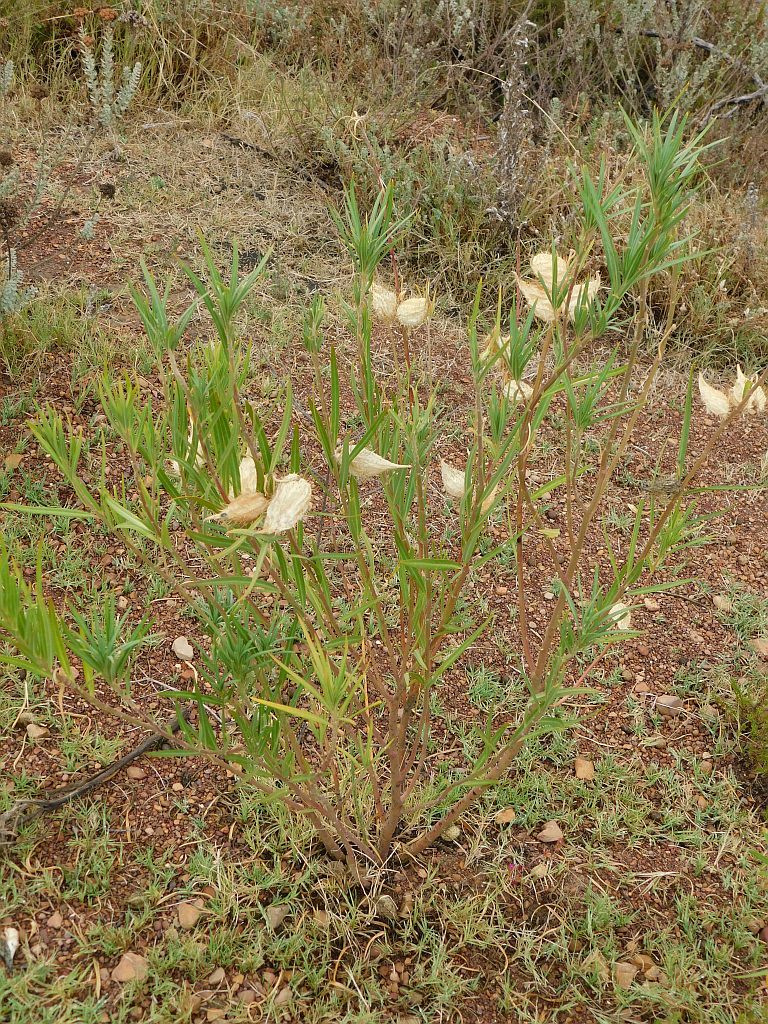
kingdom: Plantae
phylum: Tracheophyta
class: Magnoliopsida
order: Gentianales
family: Apocynaceae
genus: Gomphocarpus
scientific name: Gomphocarpus fruticosus
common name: Milkweed
